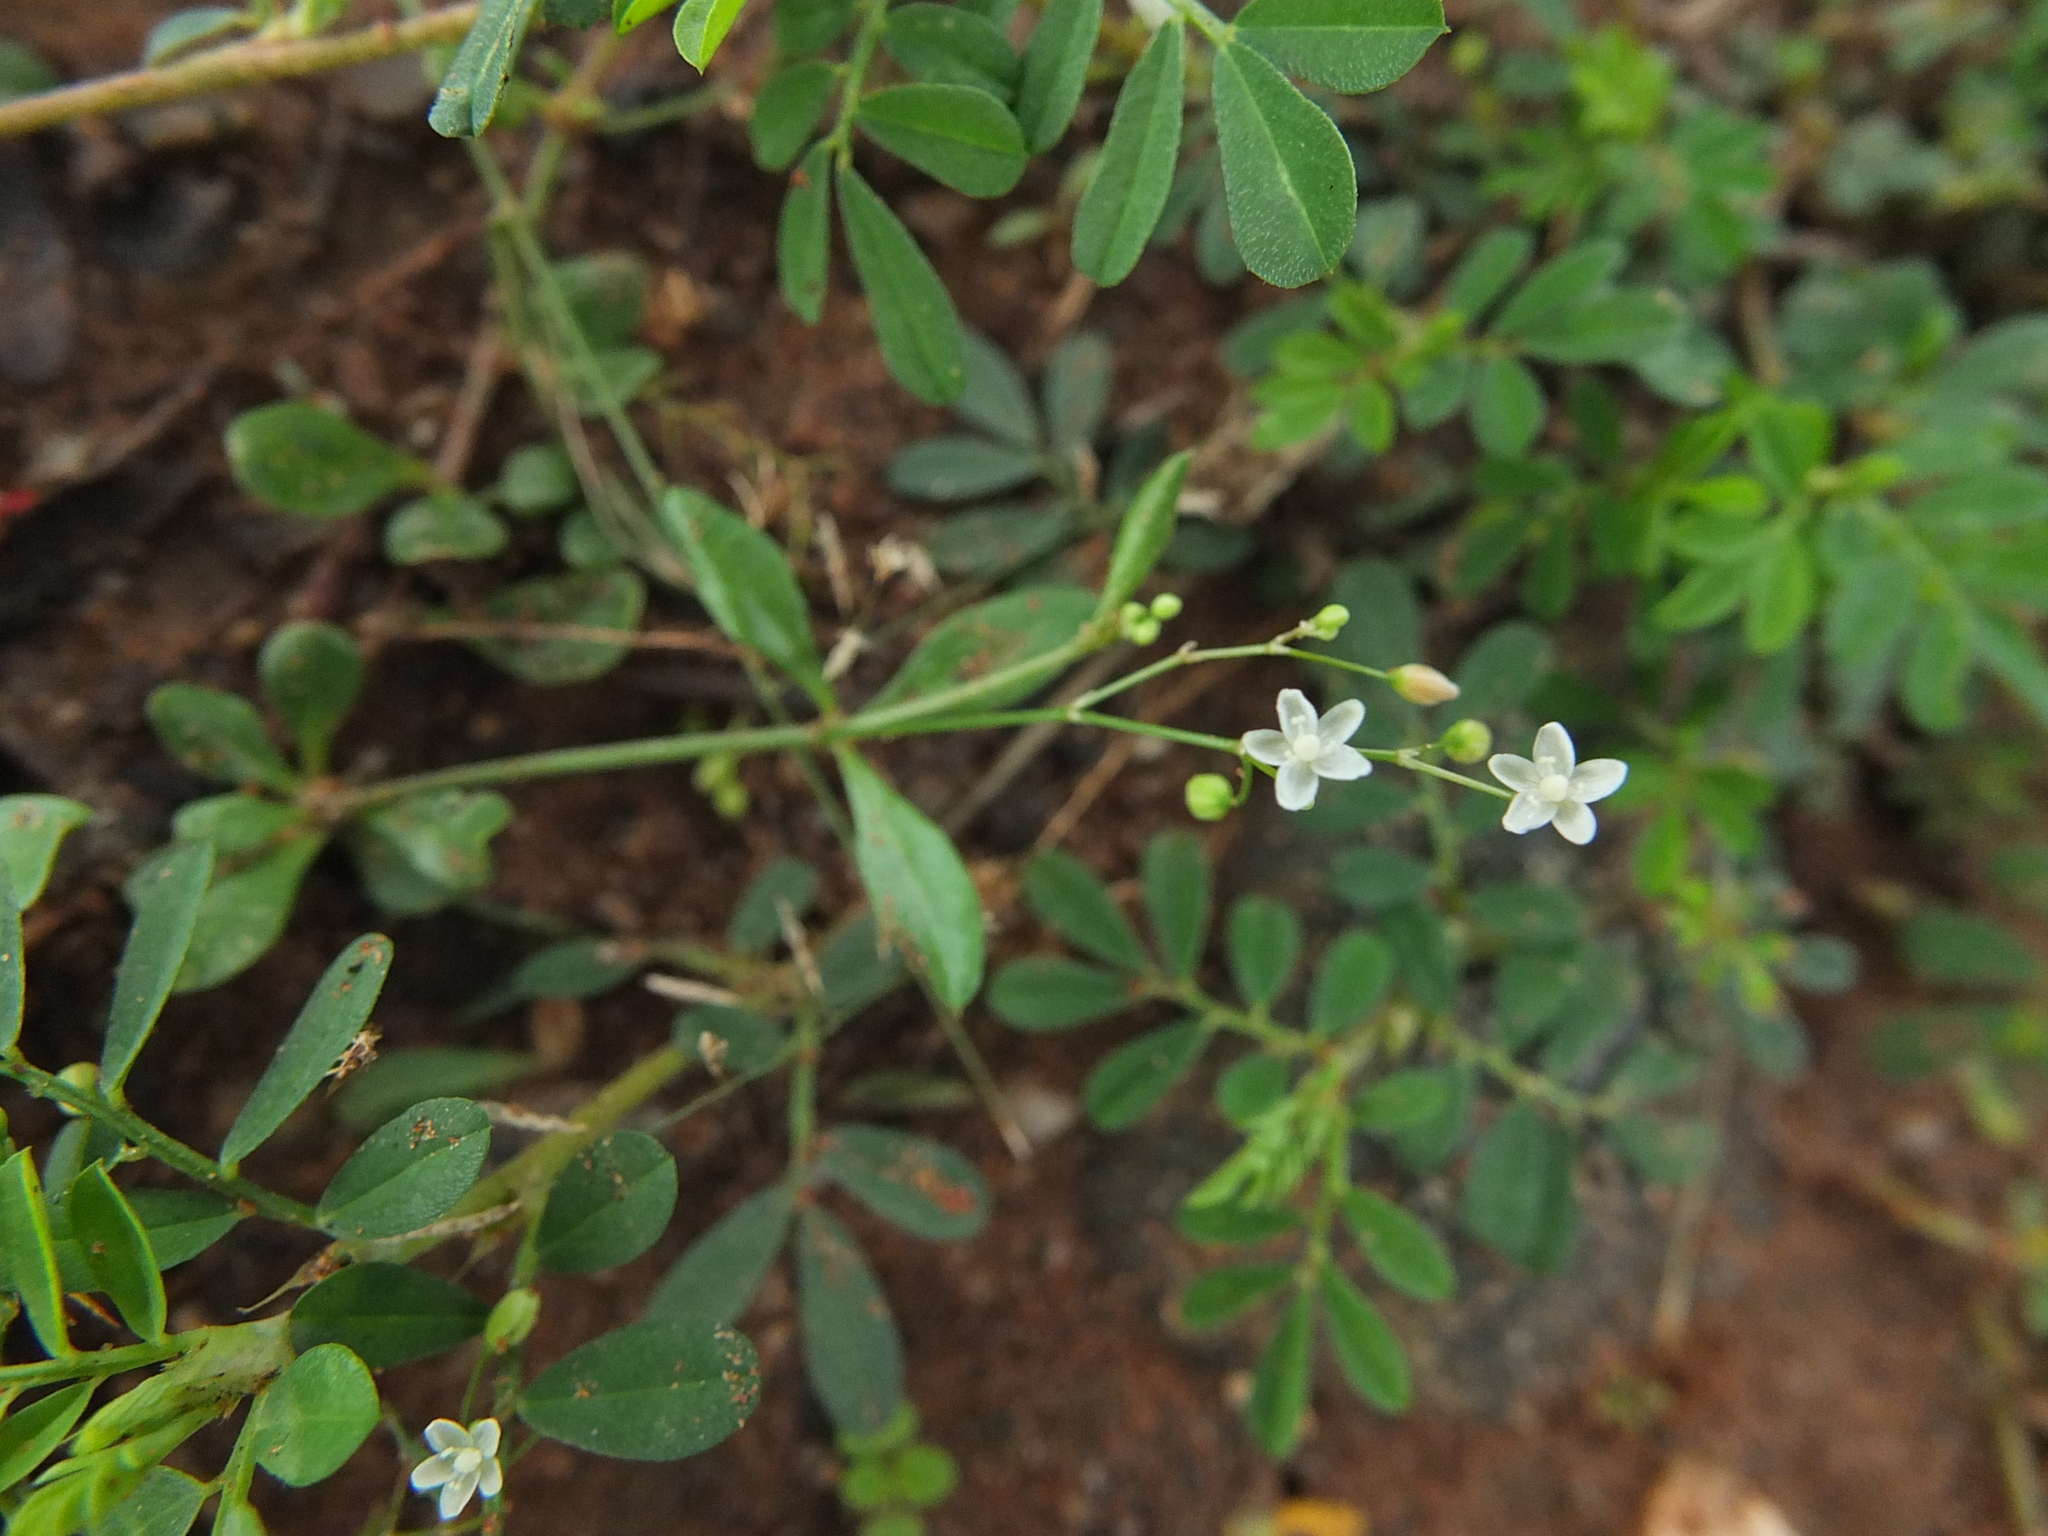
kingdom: Plantae
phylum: Tracheophyta
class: Magnoliopsida
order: Caryophyllales
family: Molluginaceae
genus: Trigastrotheca
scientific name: Trigastrotheca pentaphylla
